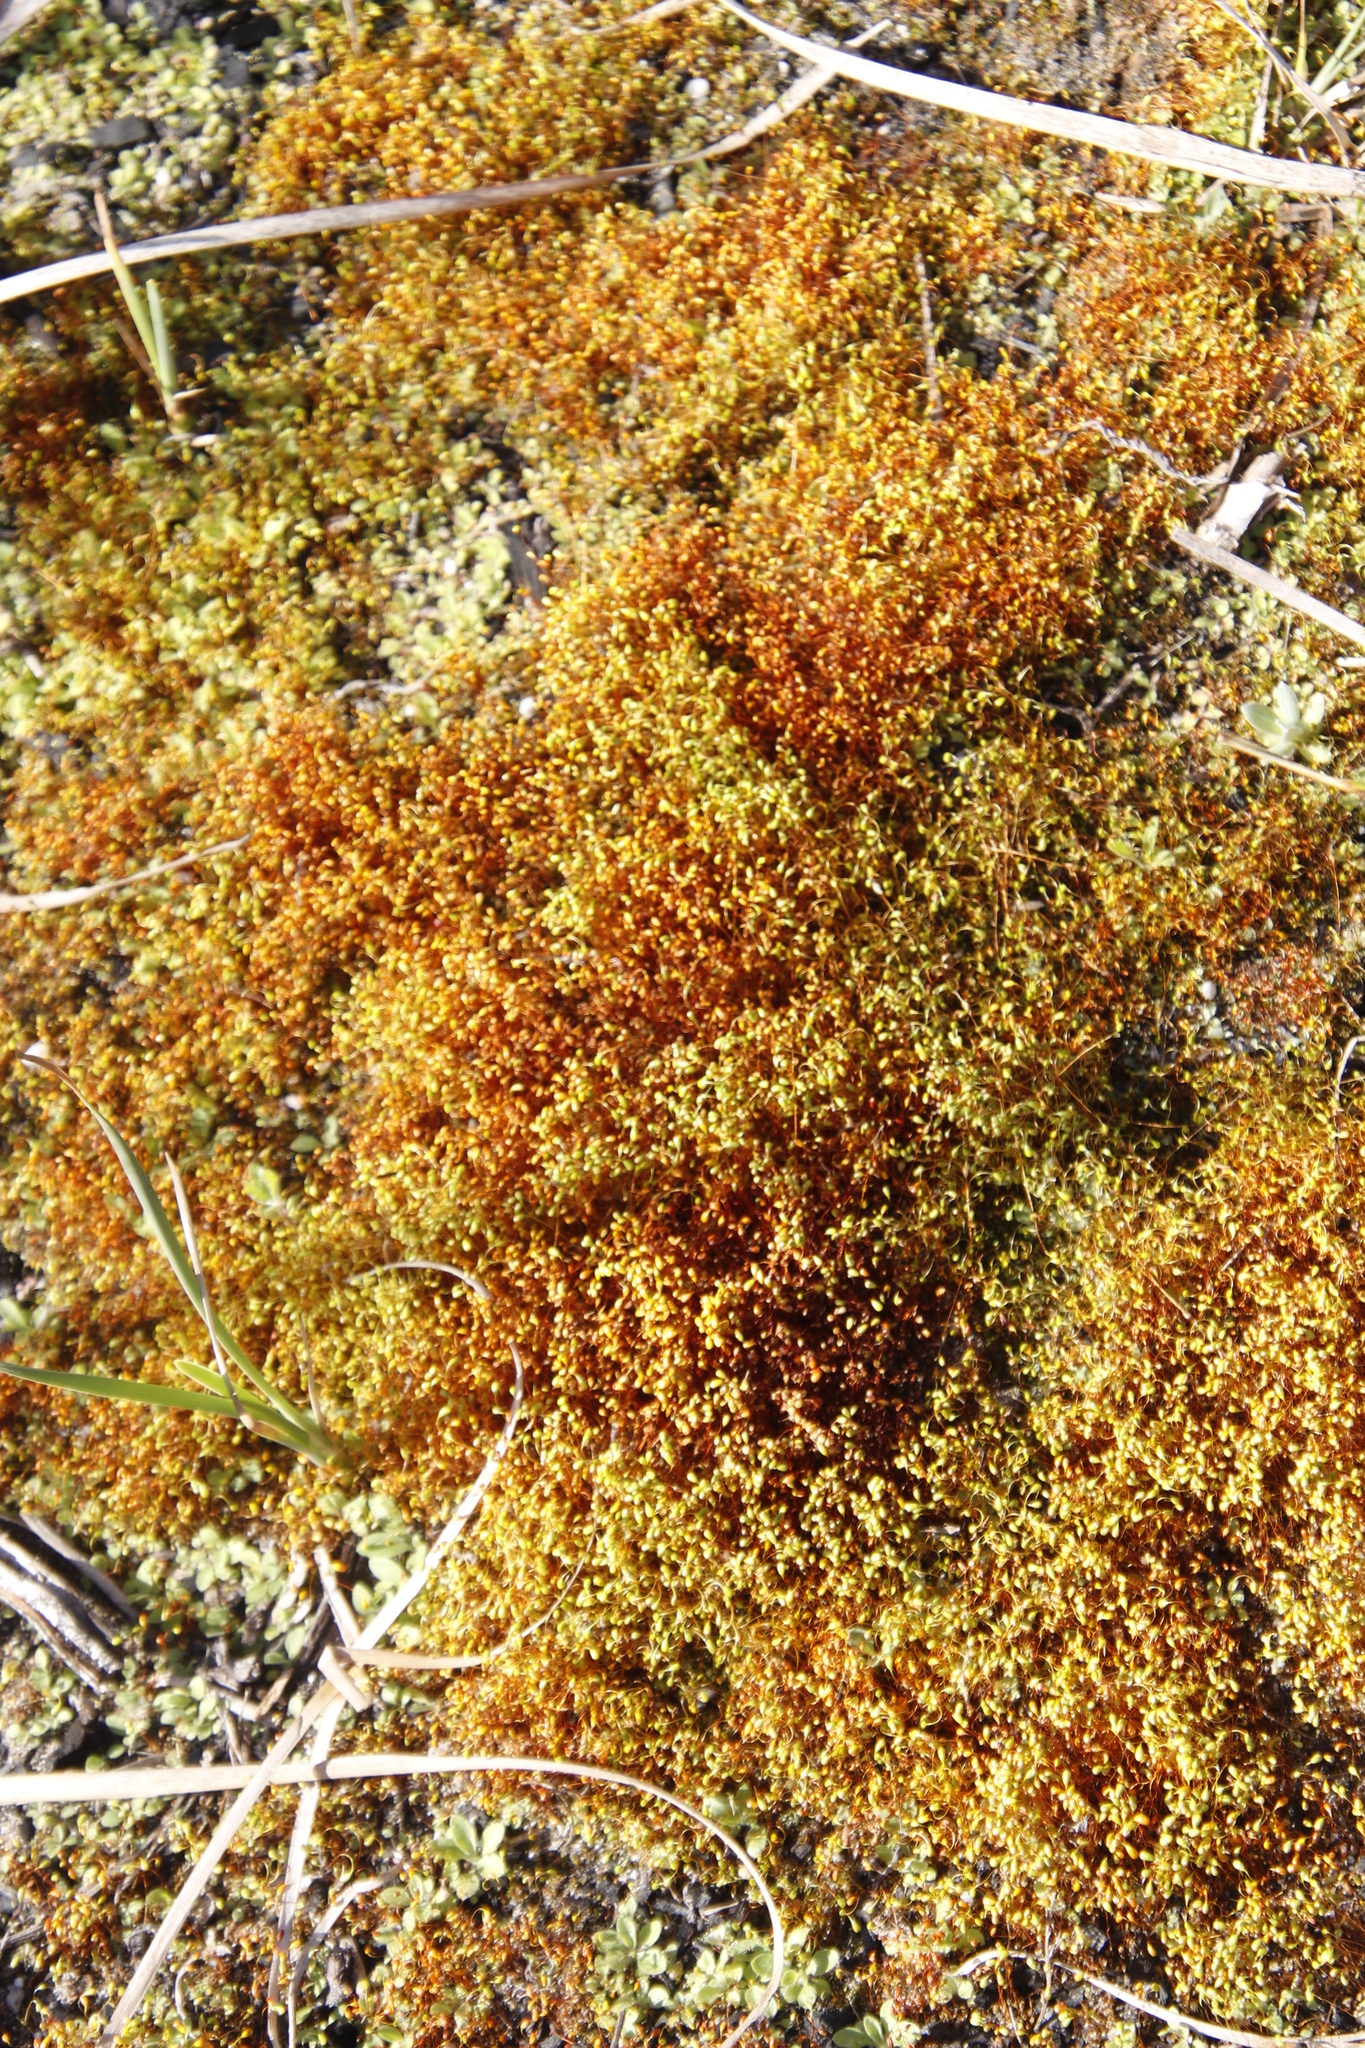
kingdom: Plantae
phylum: Bryophyta
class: Bryopsida
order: Funariales
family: Funariaceae
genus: Funaria
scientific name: Funaria hygrometrica
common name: Common cord moss
